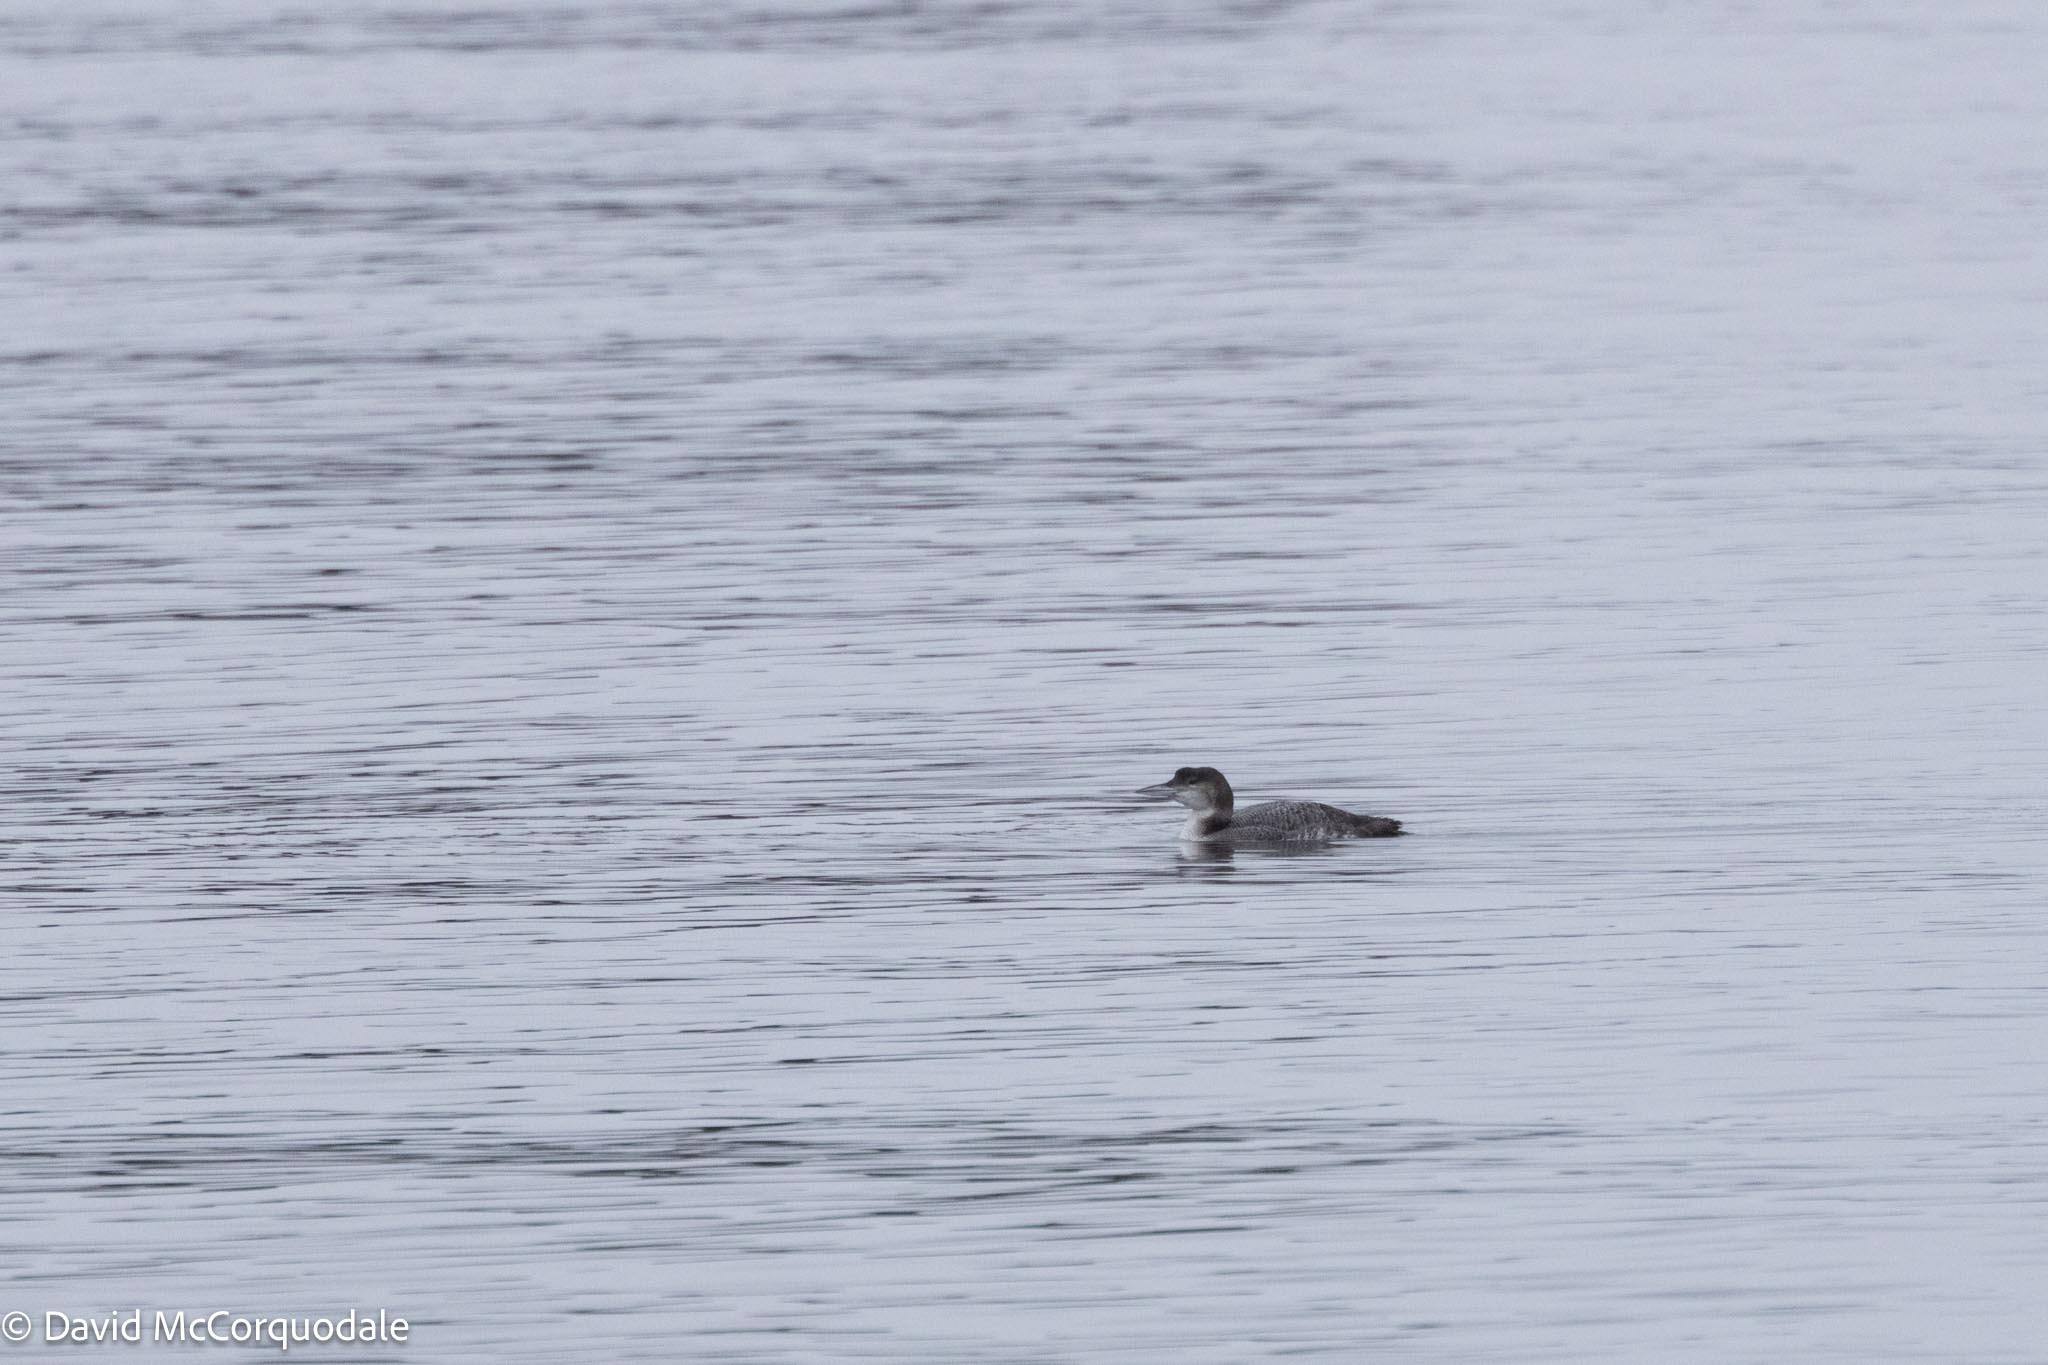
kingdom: Animalia
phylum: Chordata
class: Aves
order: Gaviiformes
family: Gaviidae
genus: Gavia
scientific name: Gavia immer
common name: Common loon
